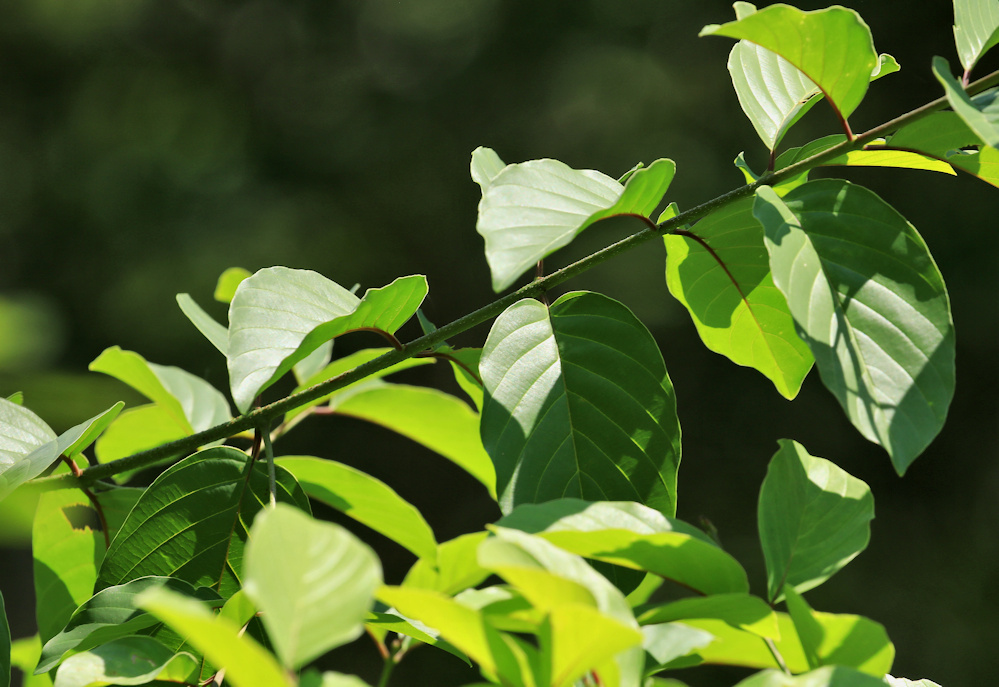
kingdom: Plantae
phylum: Tracheophyta
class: Magnoliopsida
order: Rosales
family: Rhamnaceae
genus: Phyllogeiton
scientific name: Phyllogeiton discolor
